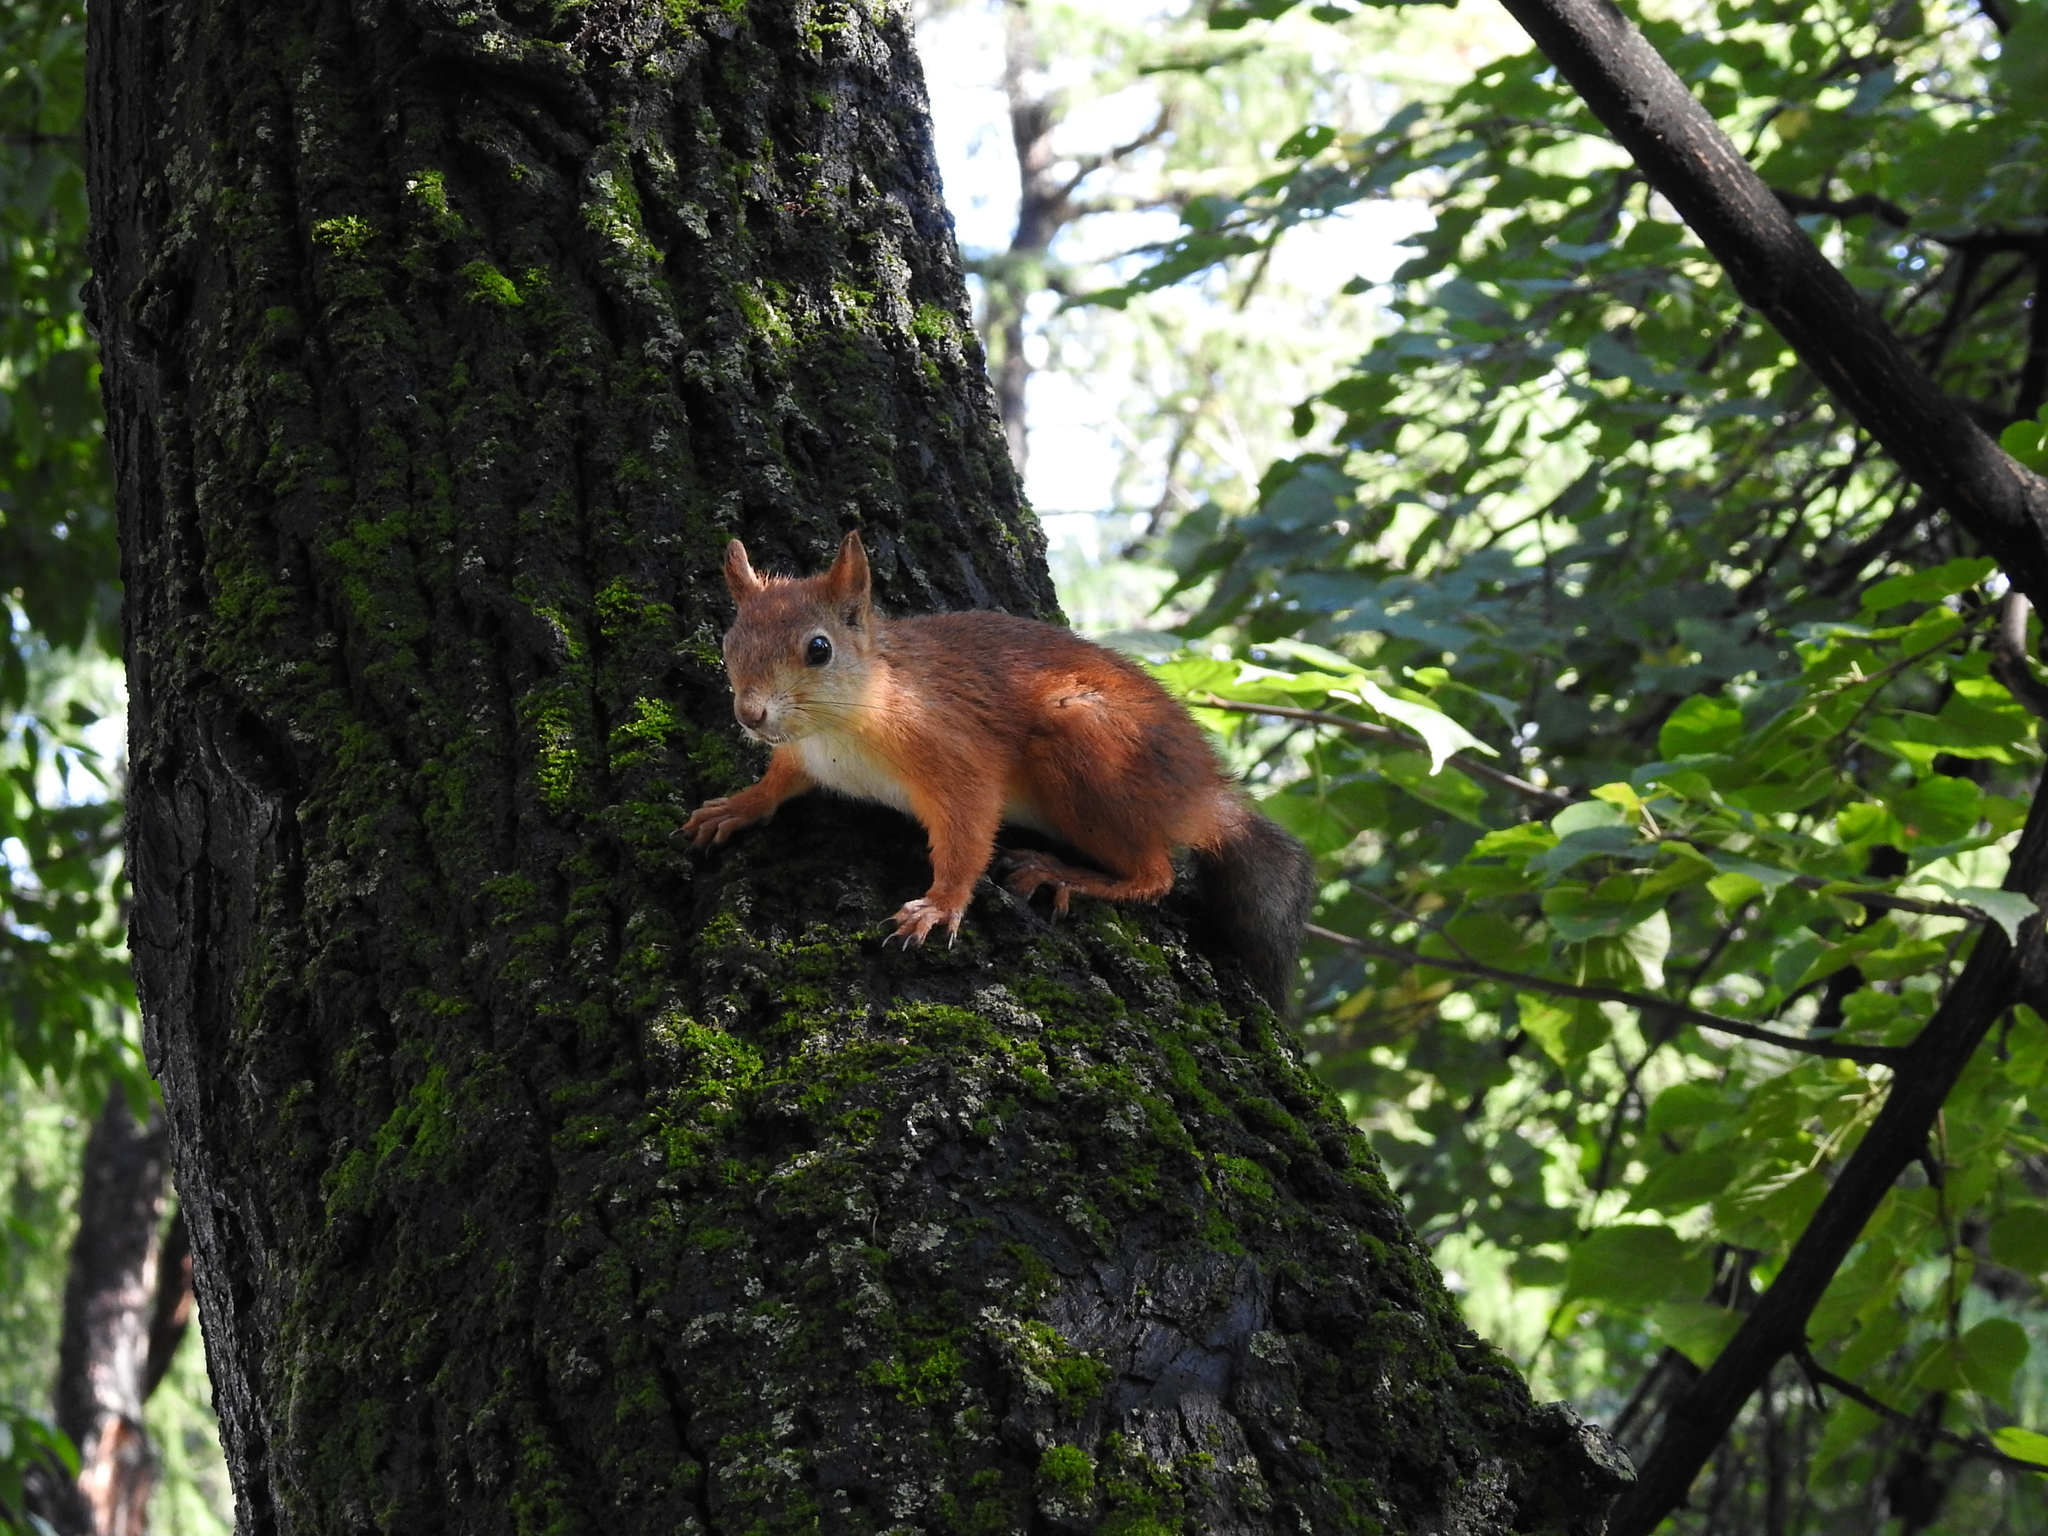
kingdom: Animalia
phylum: Chordata
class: Mammalia
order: Rodentia
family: Sciuridae
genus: Sciurus
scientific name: Sciurus vulgaris
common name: Eurasian red squirrel
